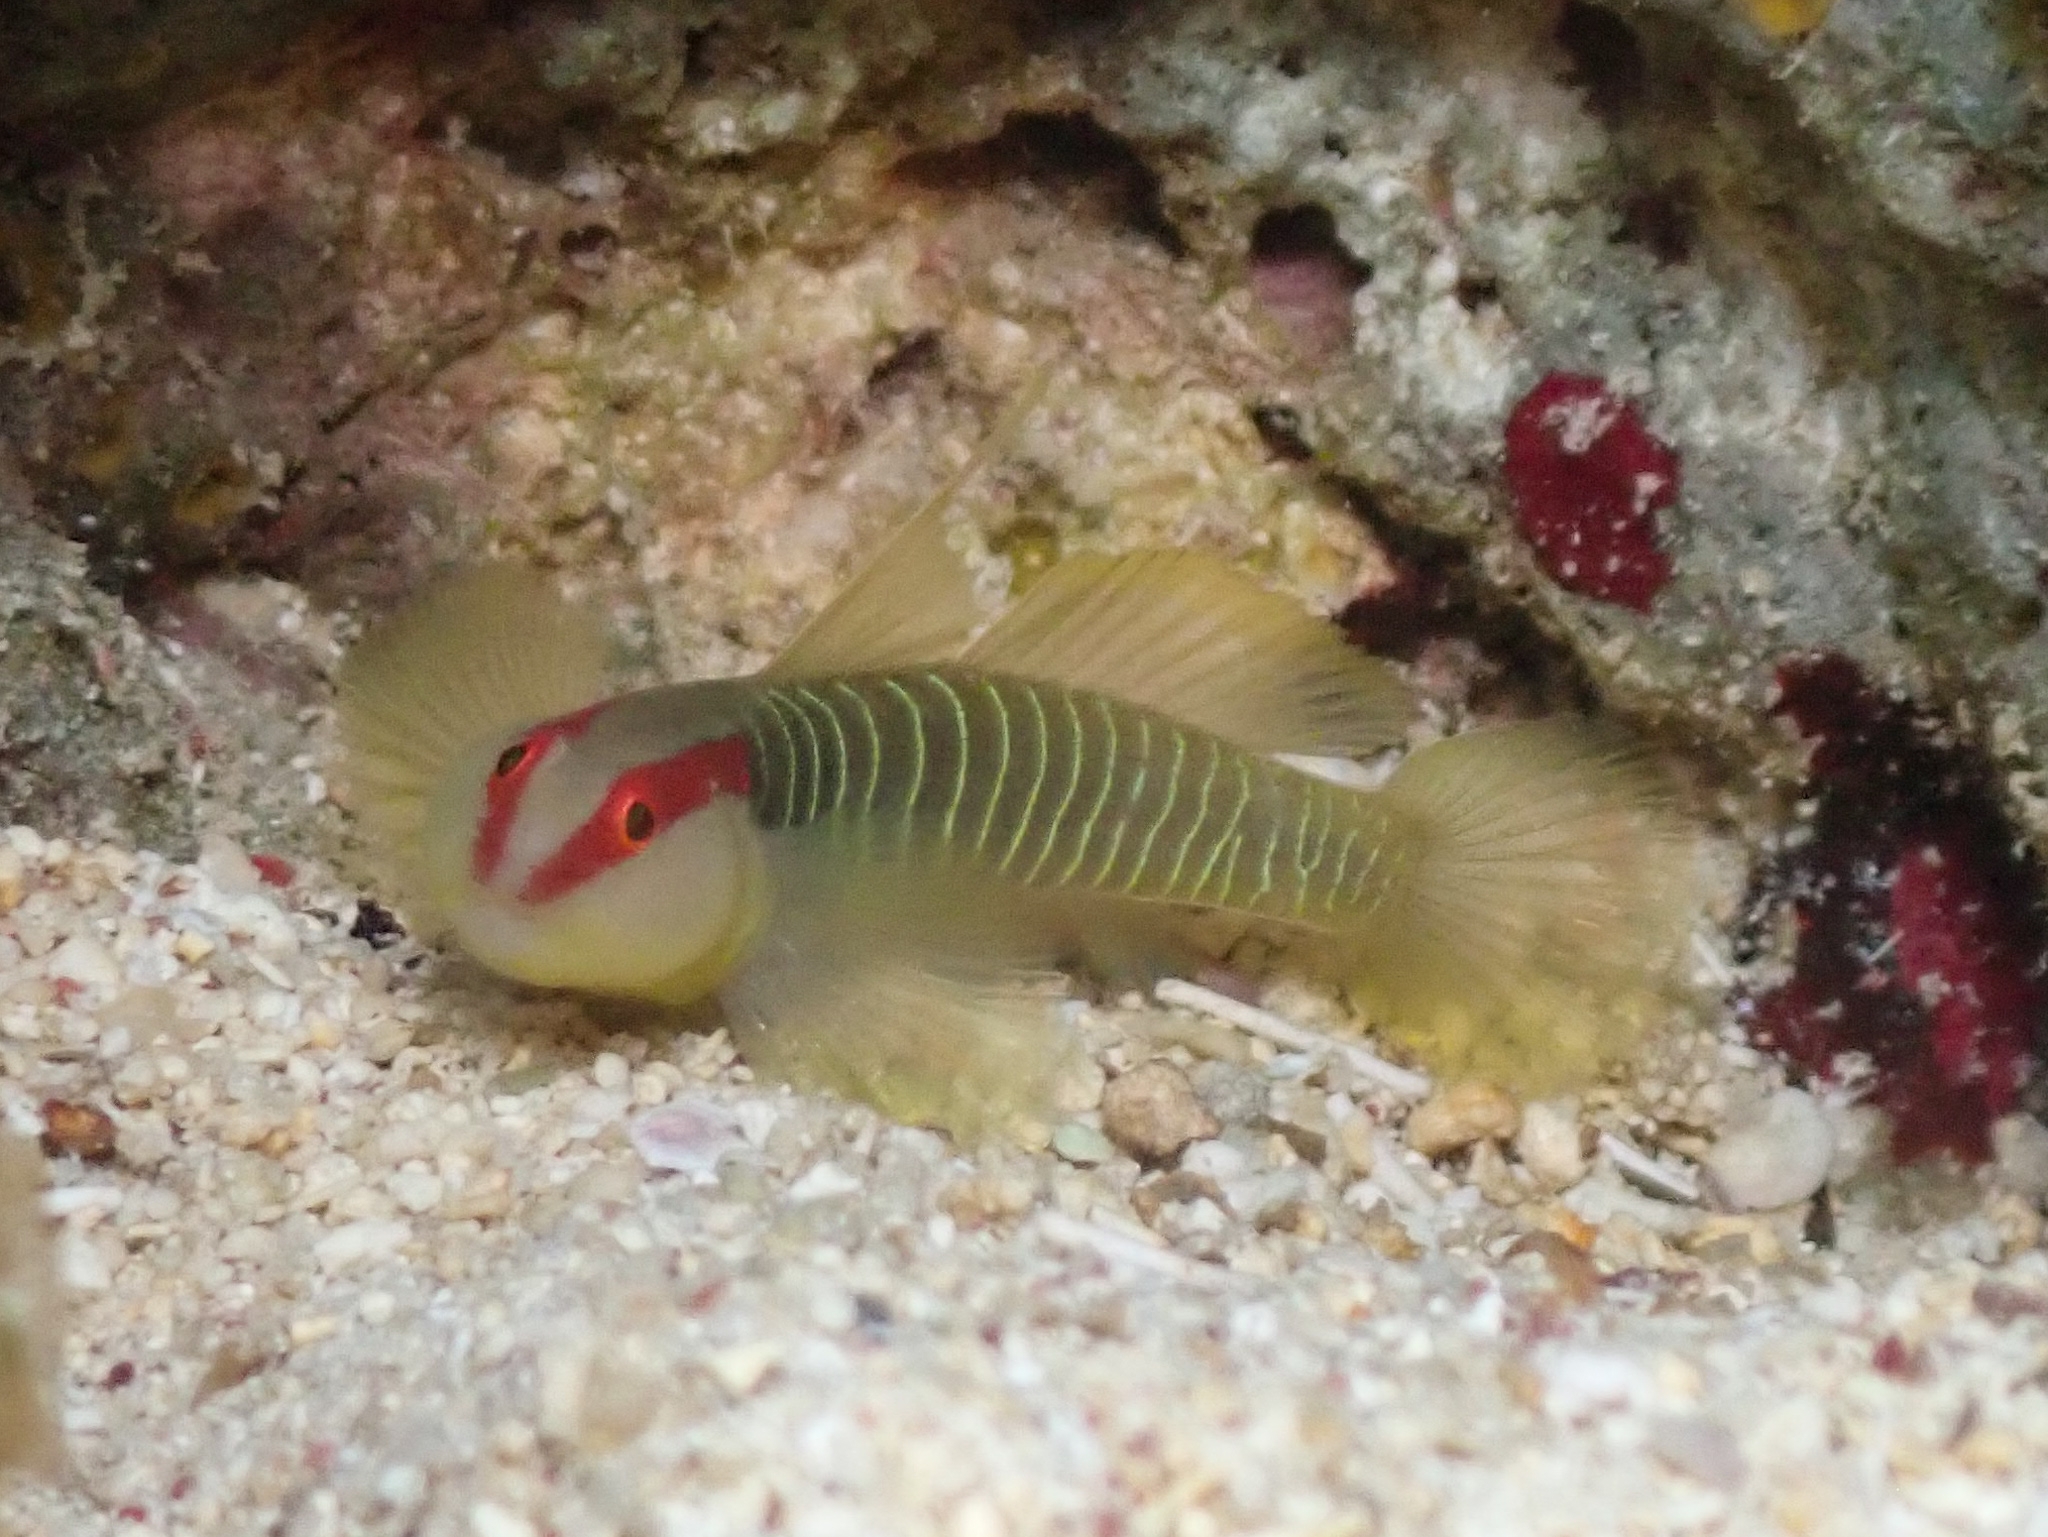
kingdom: Animalia
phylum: Chordata
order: Perciformes
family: Gobiidae
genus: Tigrigobius
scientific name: Tigrigobius harveyi
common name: Cayman greenbanded goby
